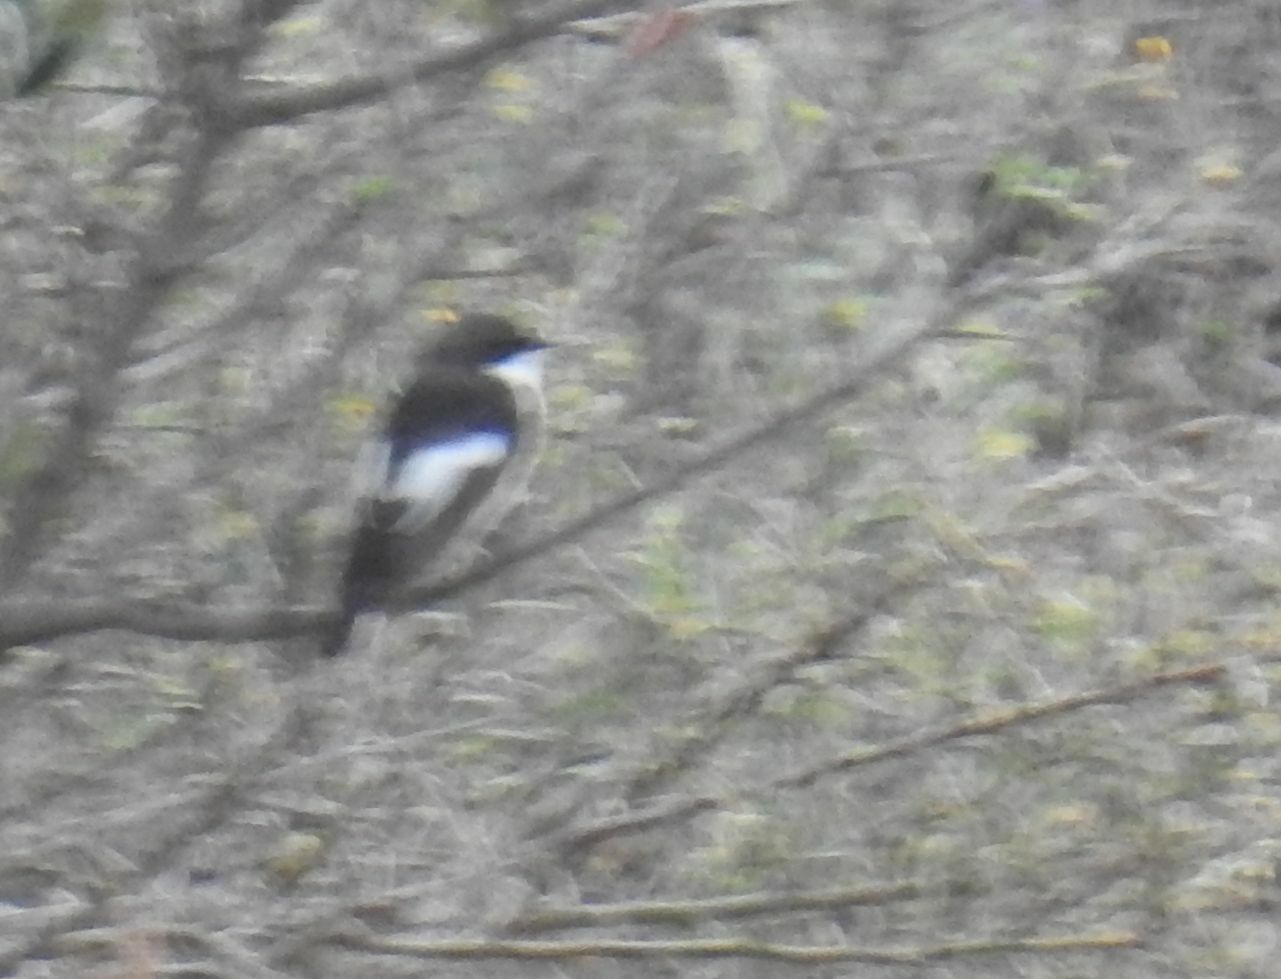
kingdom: Animalia
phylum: Chordata
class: Aves
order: Passeriformes
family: Muscicapidae
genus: Ficedula
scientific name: Ficedula hypoleuca
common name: European pied flycatcher
